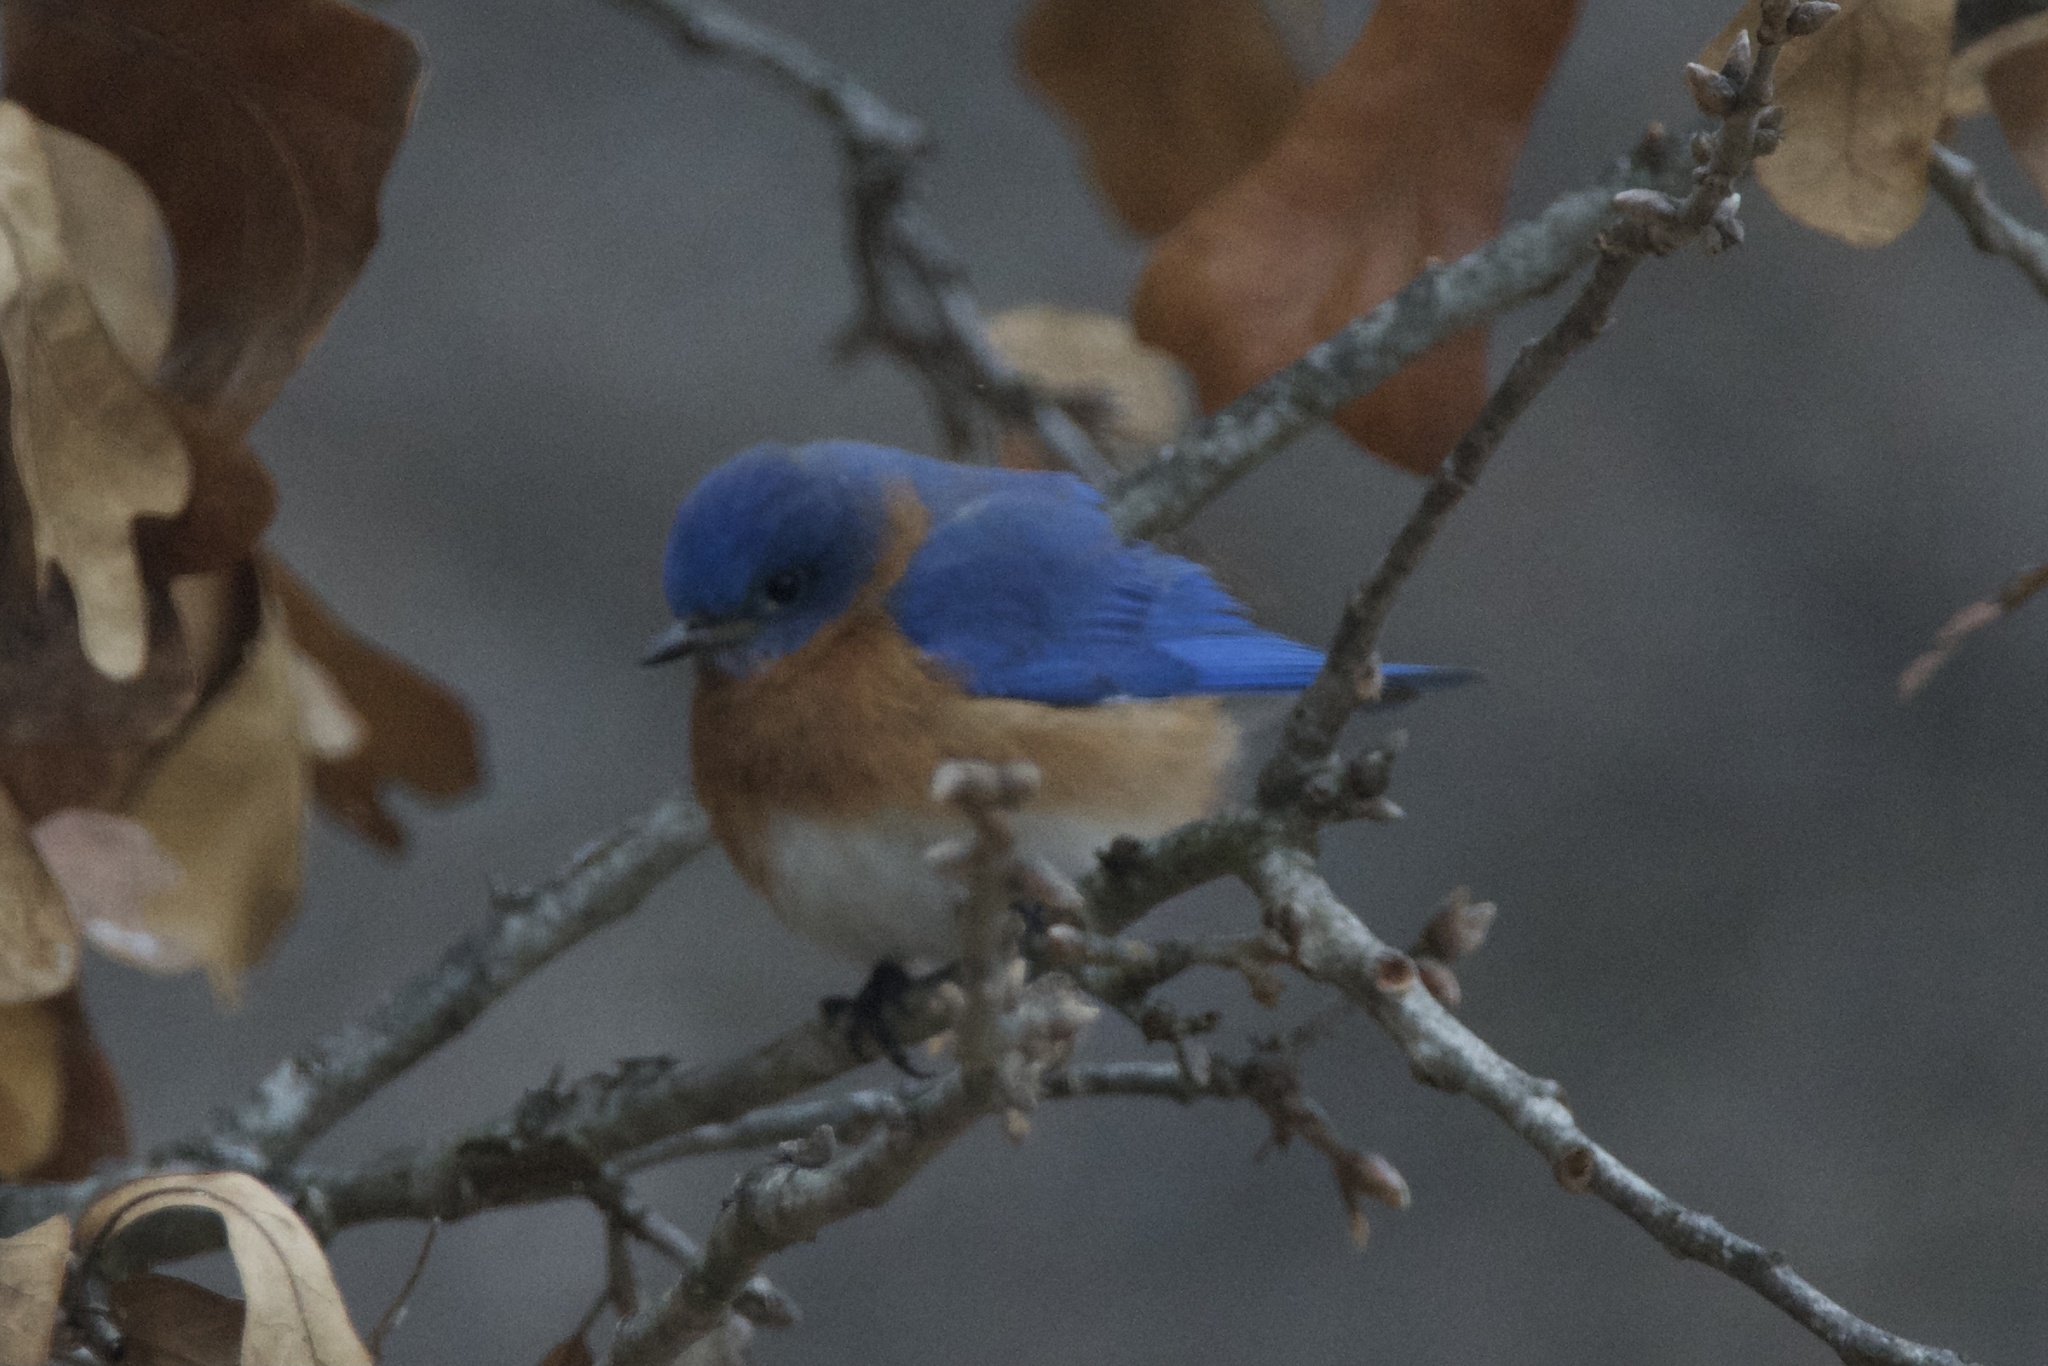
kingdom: Animalia
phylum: Chordata
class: Aves
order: Passeriformes
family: Turdidae
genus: Sialia
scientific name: Sialia sialis
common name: Eastern bluebird
